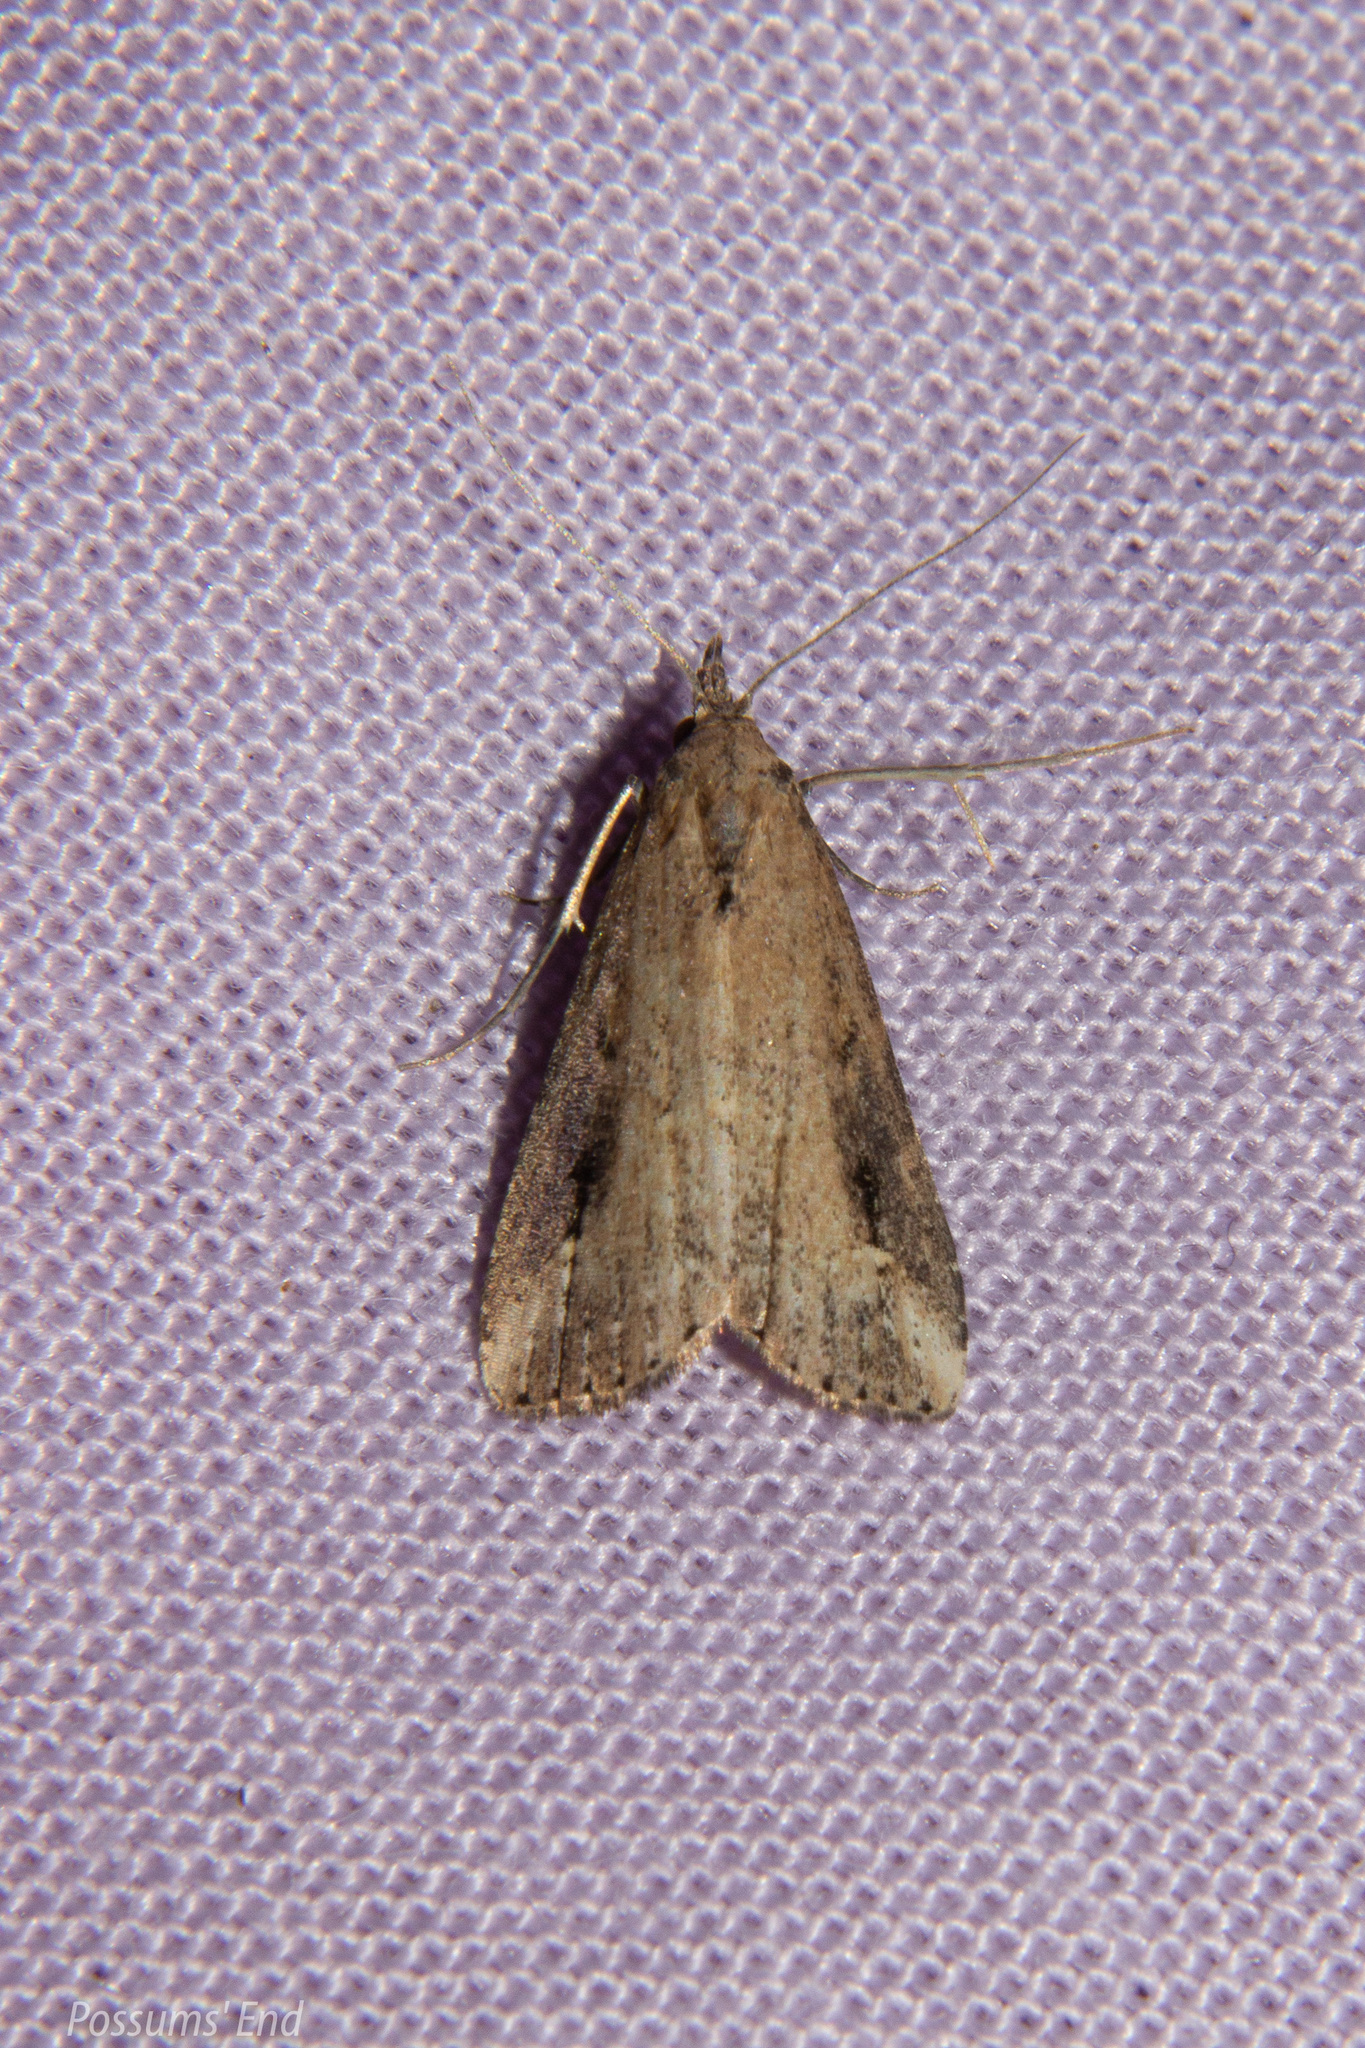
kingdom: Animalia
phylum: Arthropoda
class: Insecta
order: Lepidoptera
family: Erebidae
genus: Schrankia
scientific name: Schrankia costaestrigalis
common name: Pinion-streaked snout
